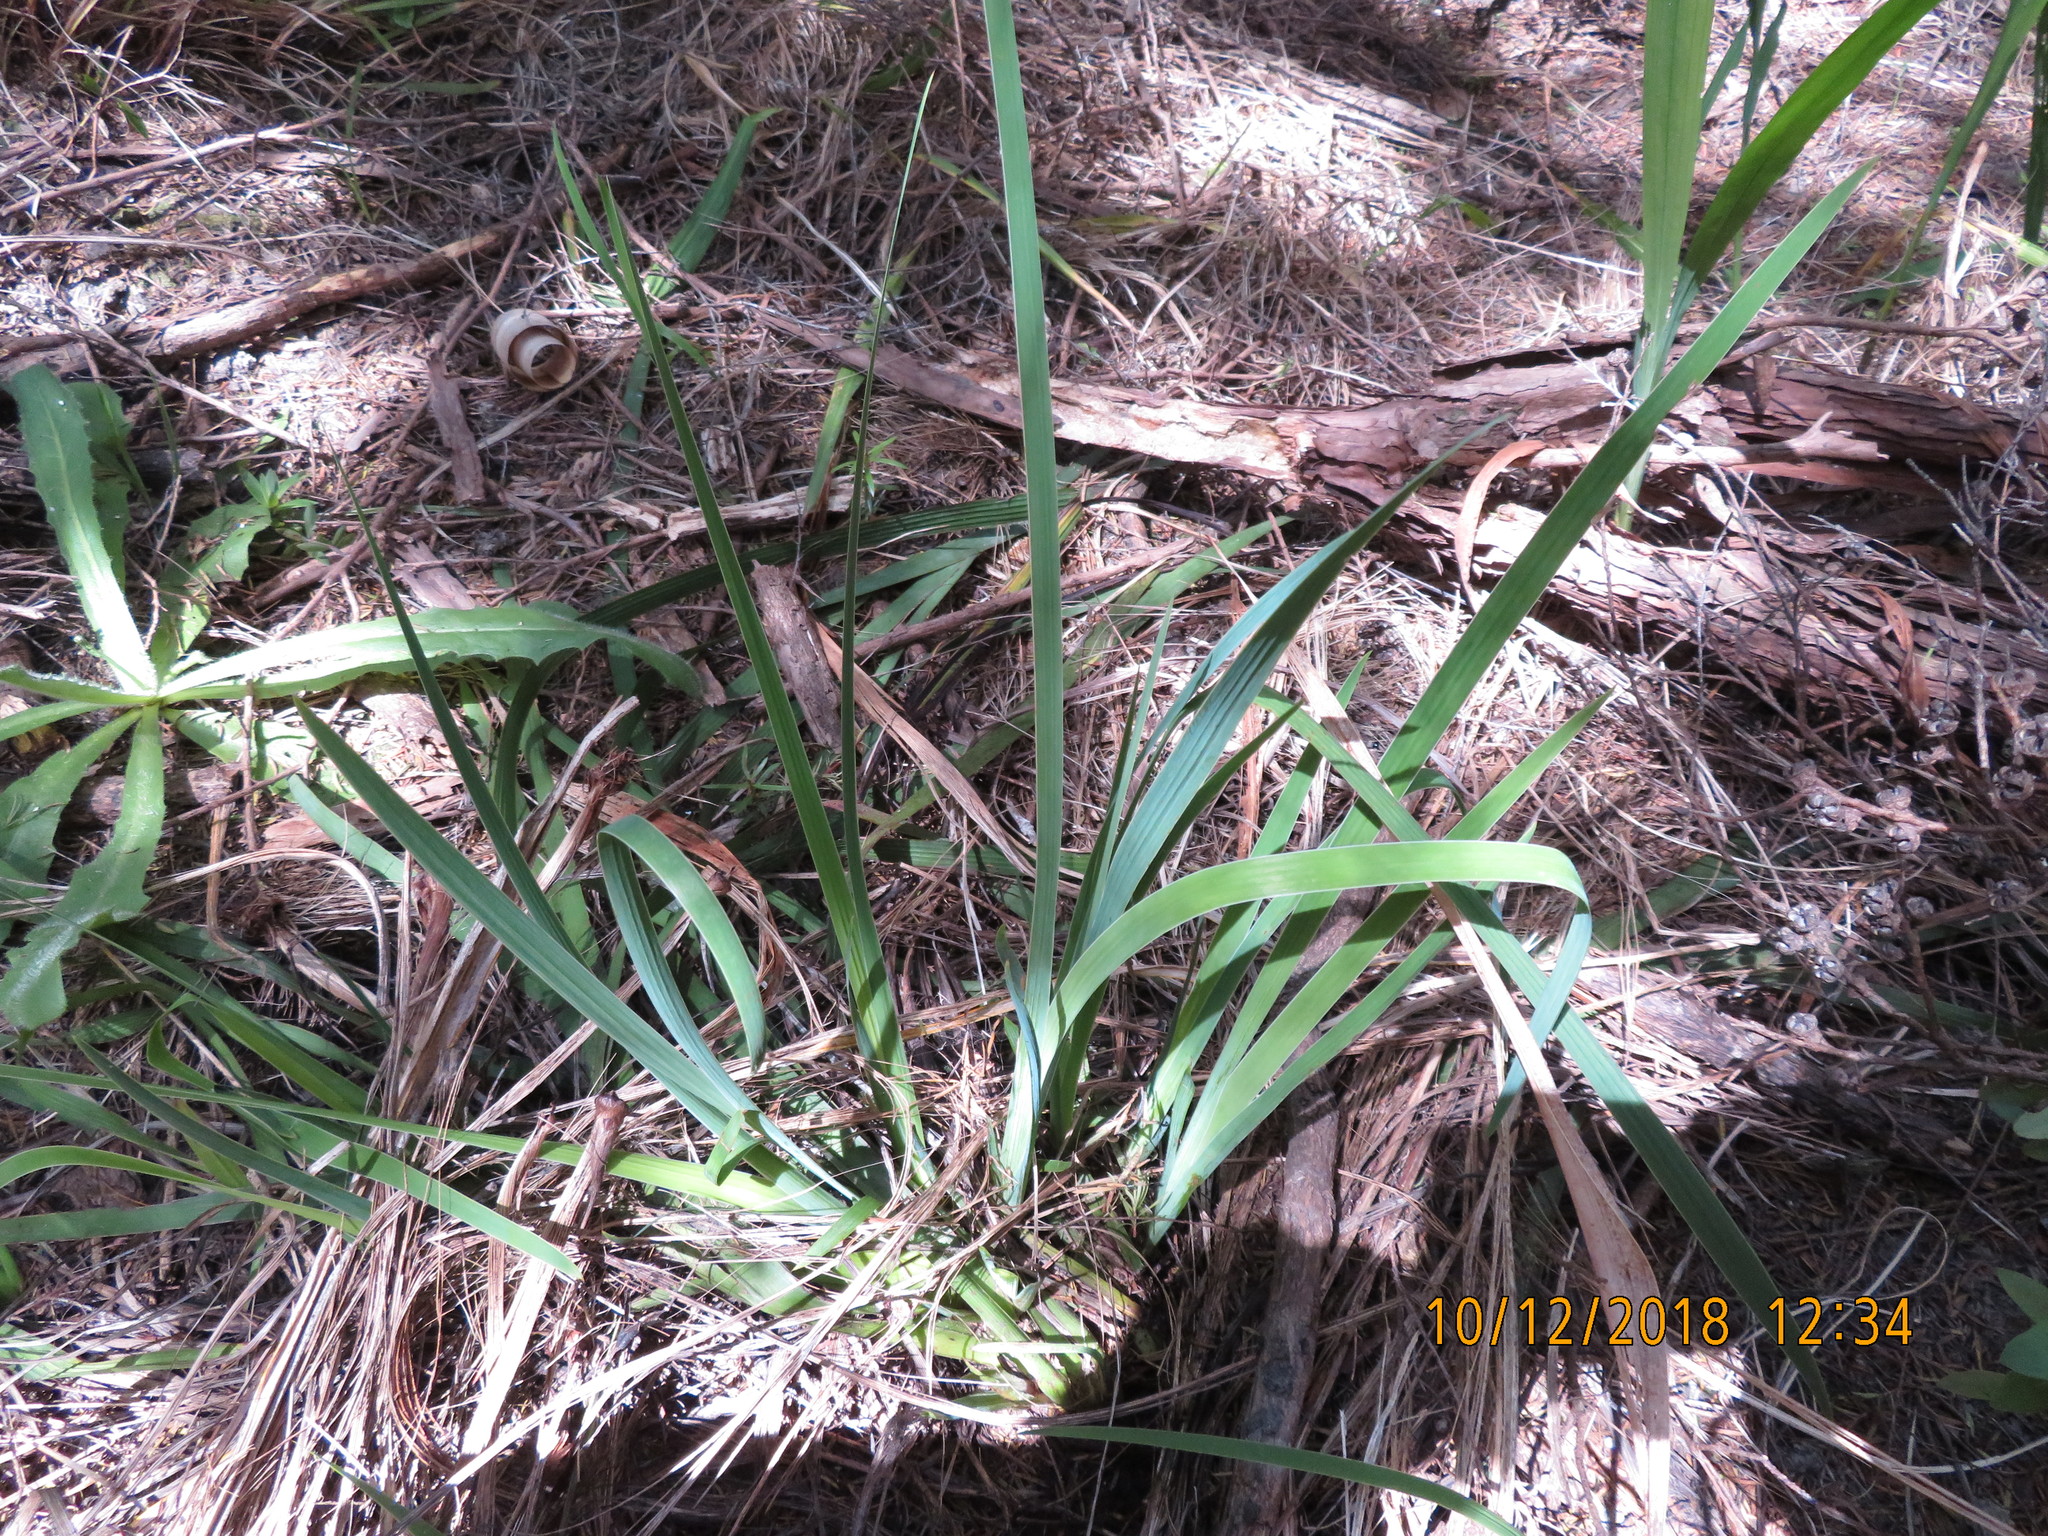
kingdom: Plantae
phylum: Tracheophyta
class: Liliopsida
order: Asparagales
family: Iridaceae
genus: Aristea
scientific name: Aristea ecklonii
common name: Blue corn-lily
